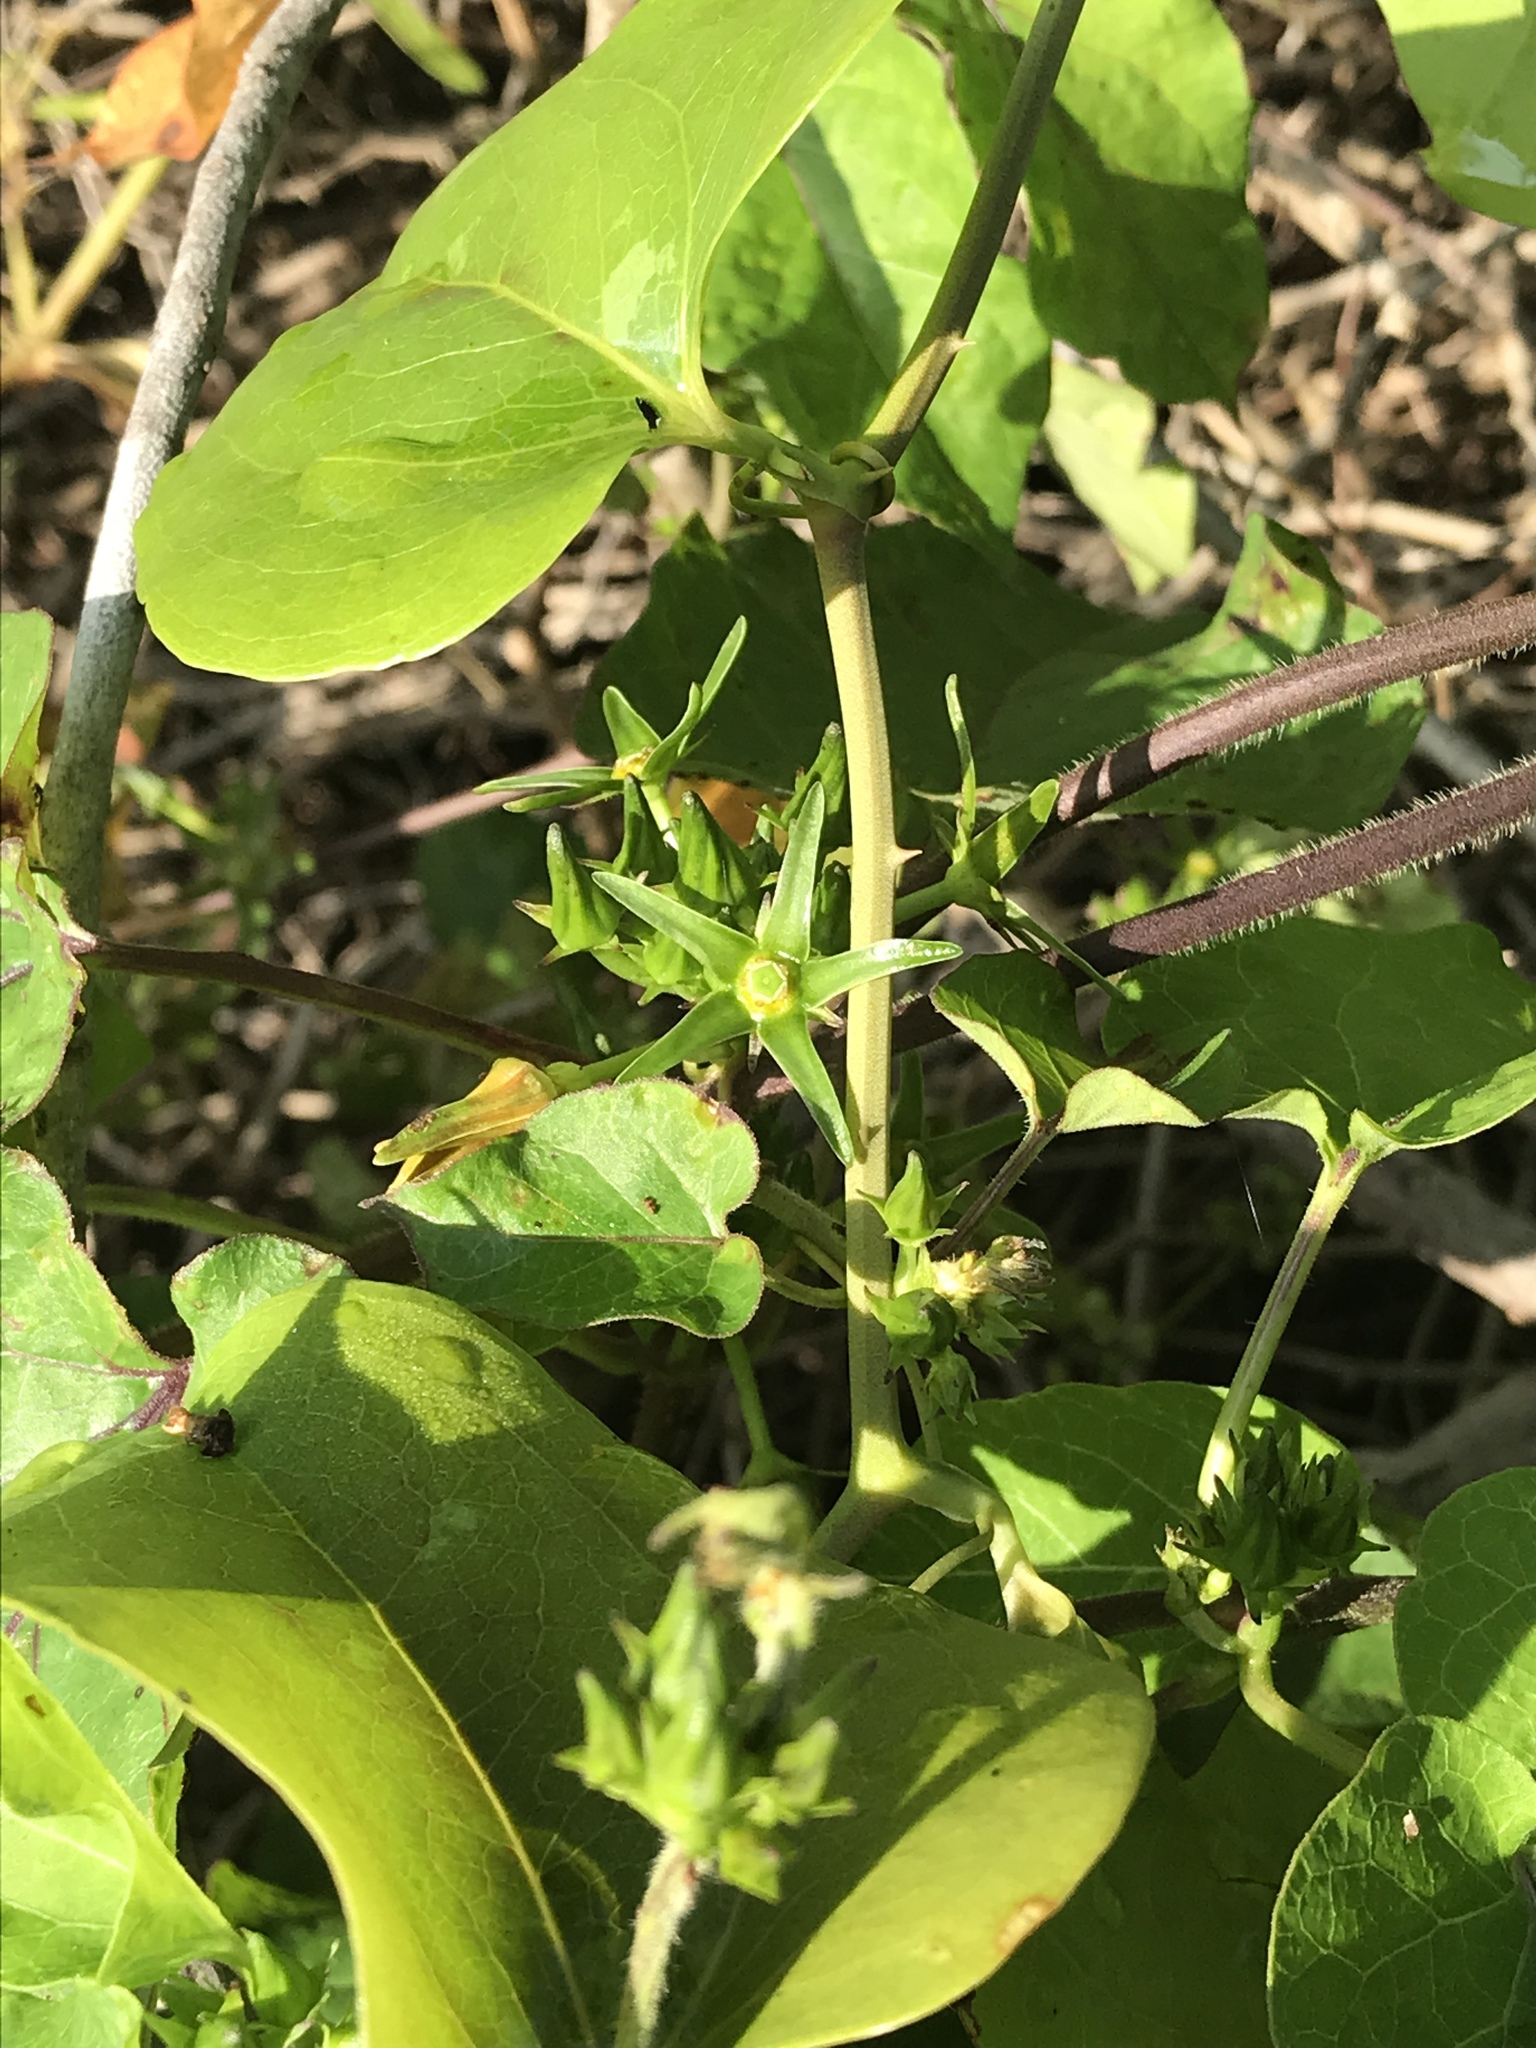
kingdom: Plantae
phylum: Tracheophyta
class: Magnoliopsida
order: Gentianales
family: Apocynaceae
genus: Gonolobus
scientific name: Gonolobus suberosus
